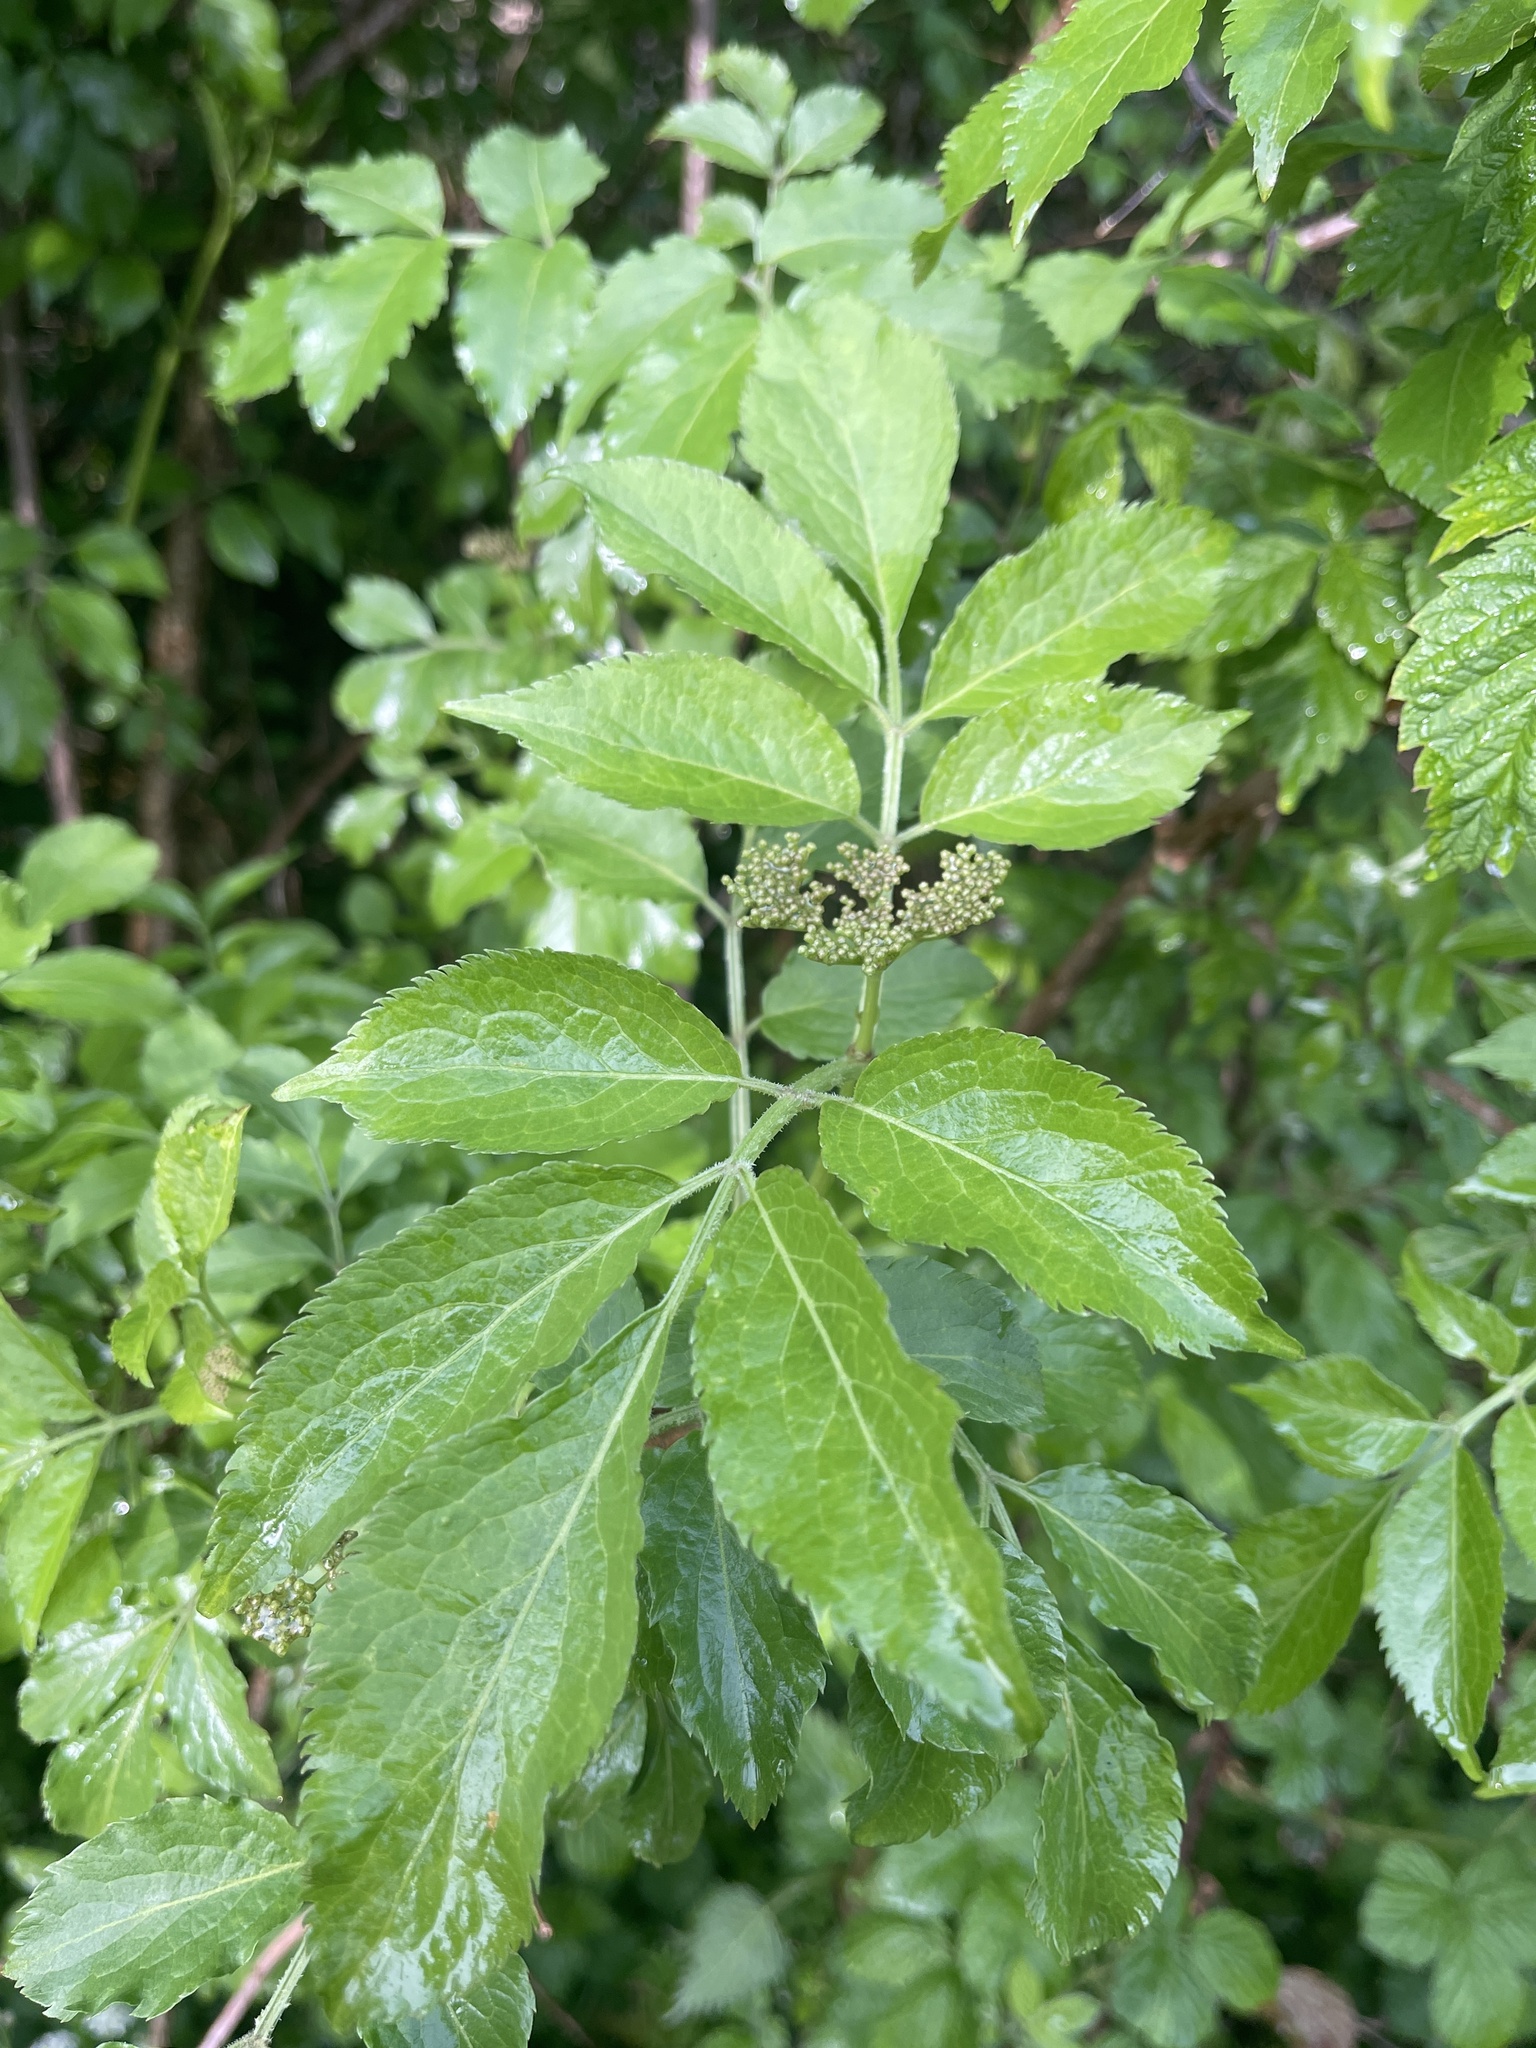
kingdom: Plantae
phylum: Tracheophyta
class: Magnoliopsida
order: Dipsacales
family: Viburnaceae
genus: Sambucus
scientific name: Sambucus nigra
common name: Elder
